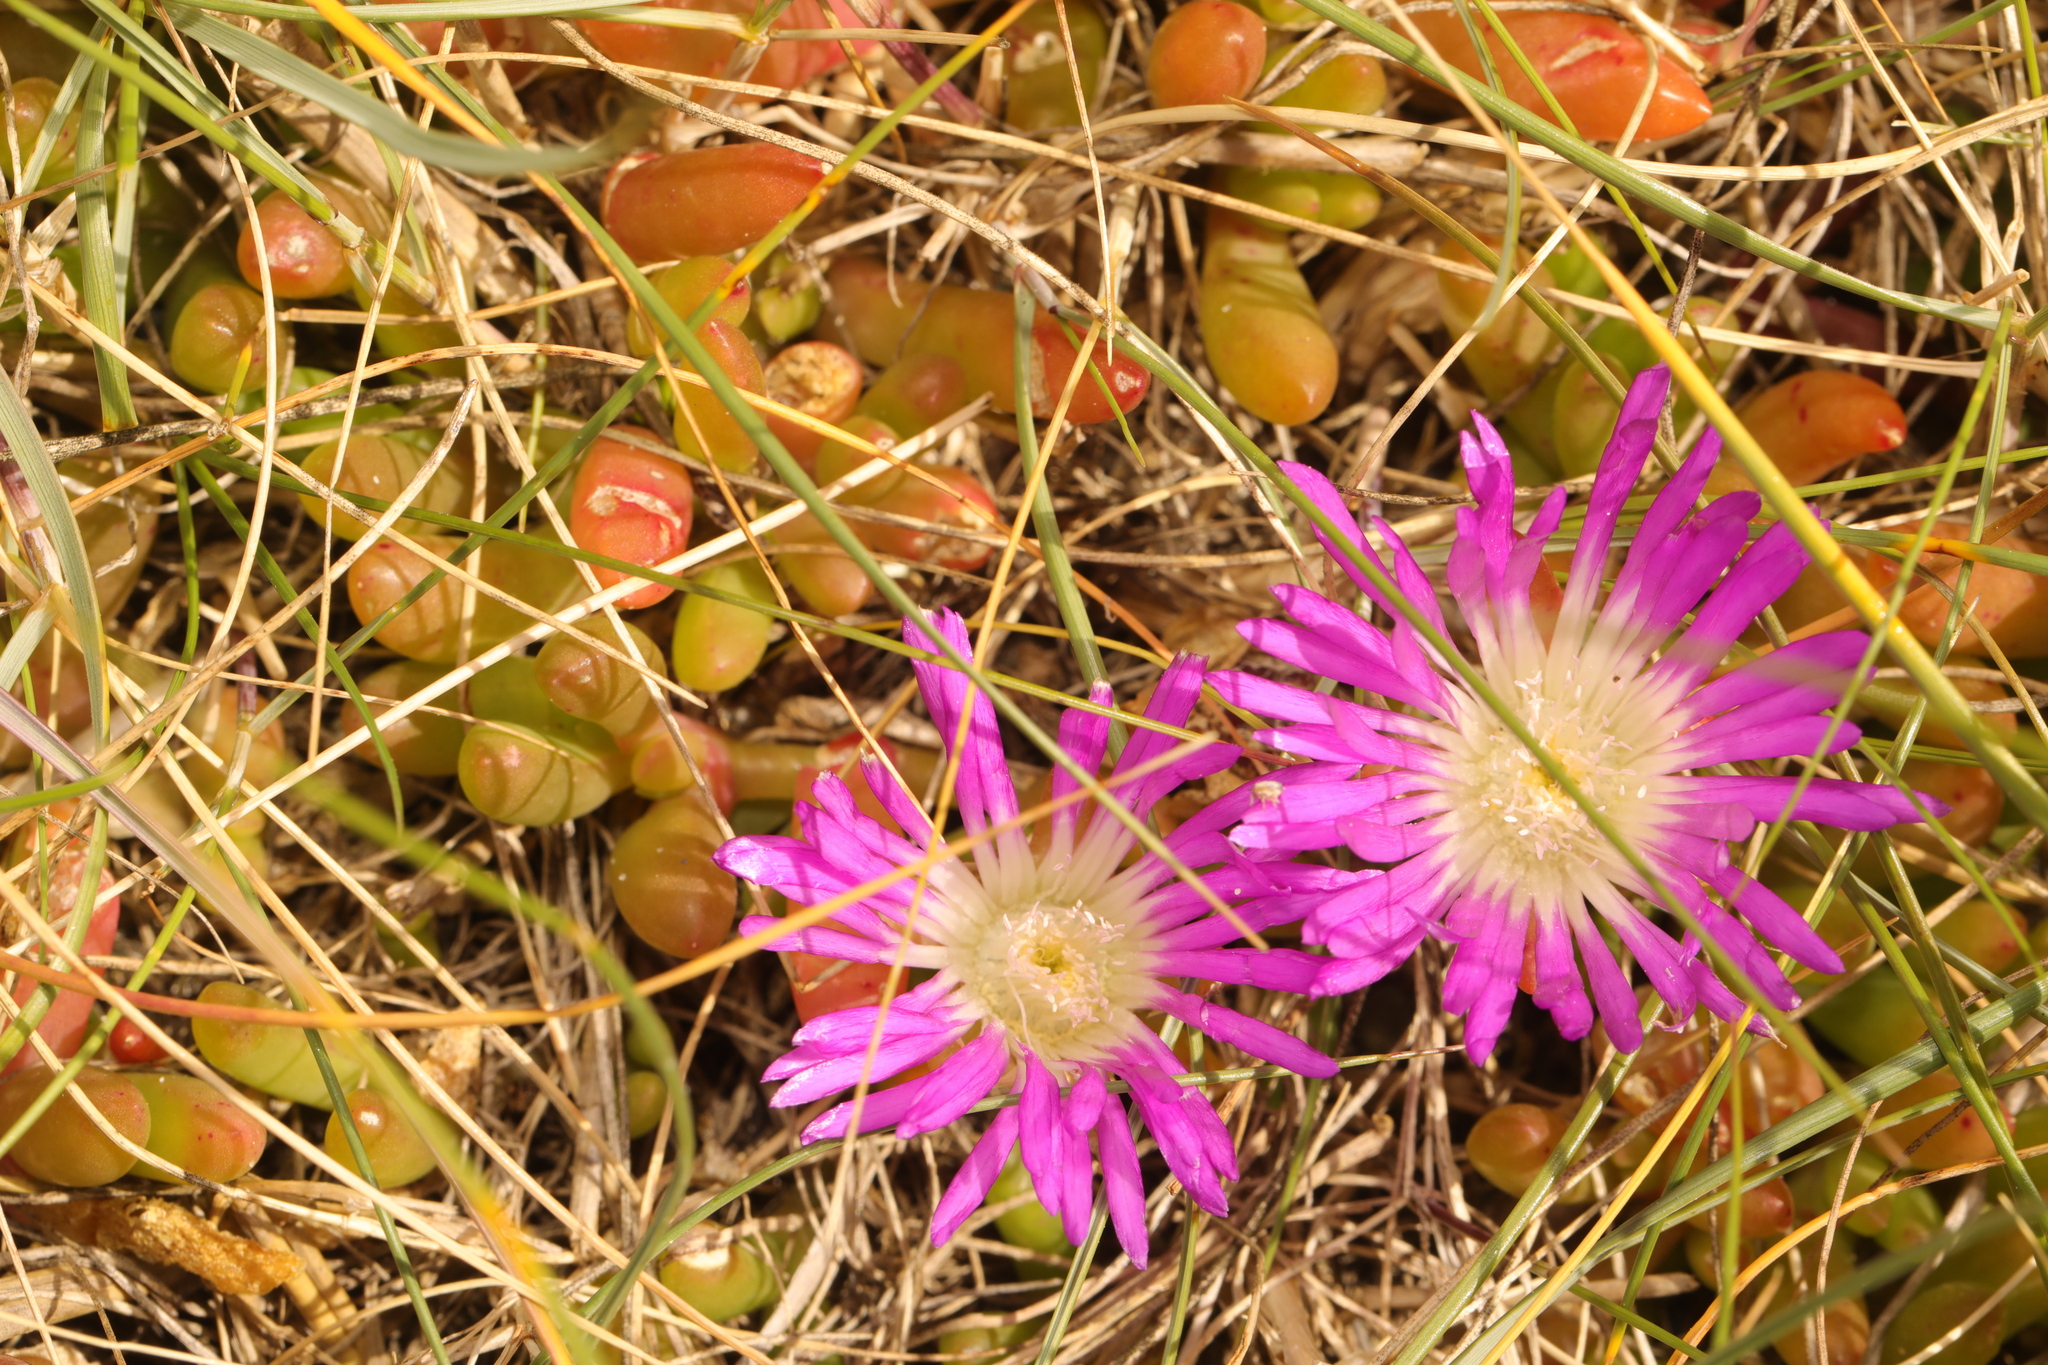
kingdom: Plantae
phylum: Tracheophyta
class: Magnoliopsida
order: Caryophyllales
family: Aizoaceae
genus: Disphyma
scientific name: Disphyma crassifolium
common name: Purple dewplant
